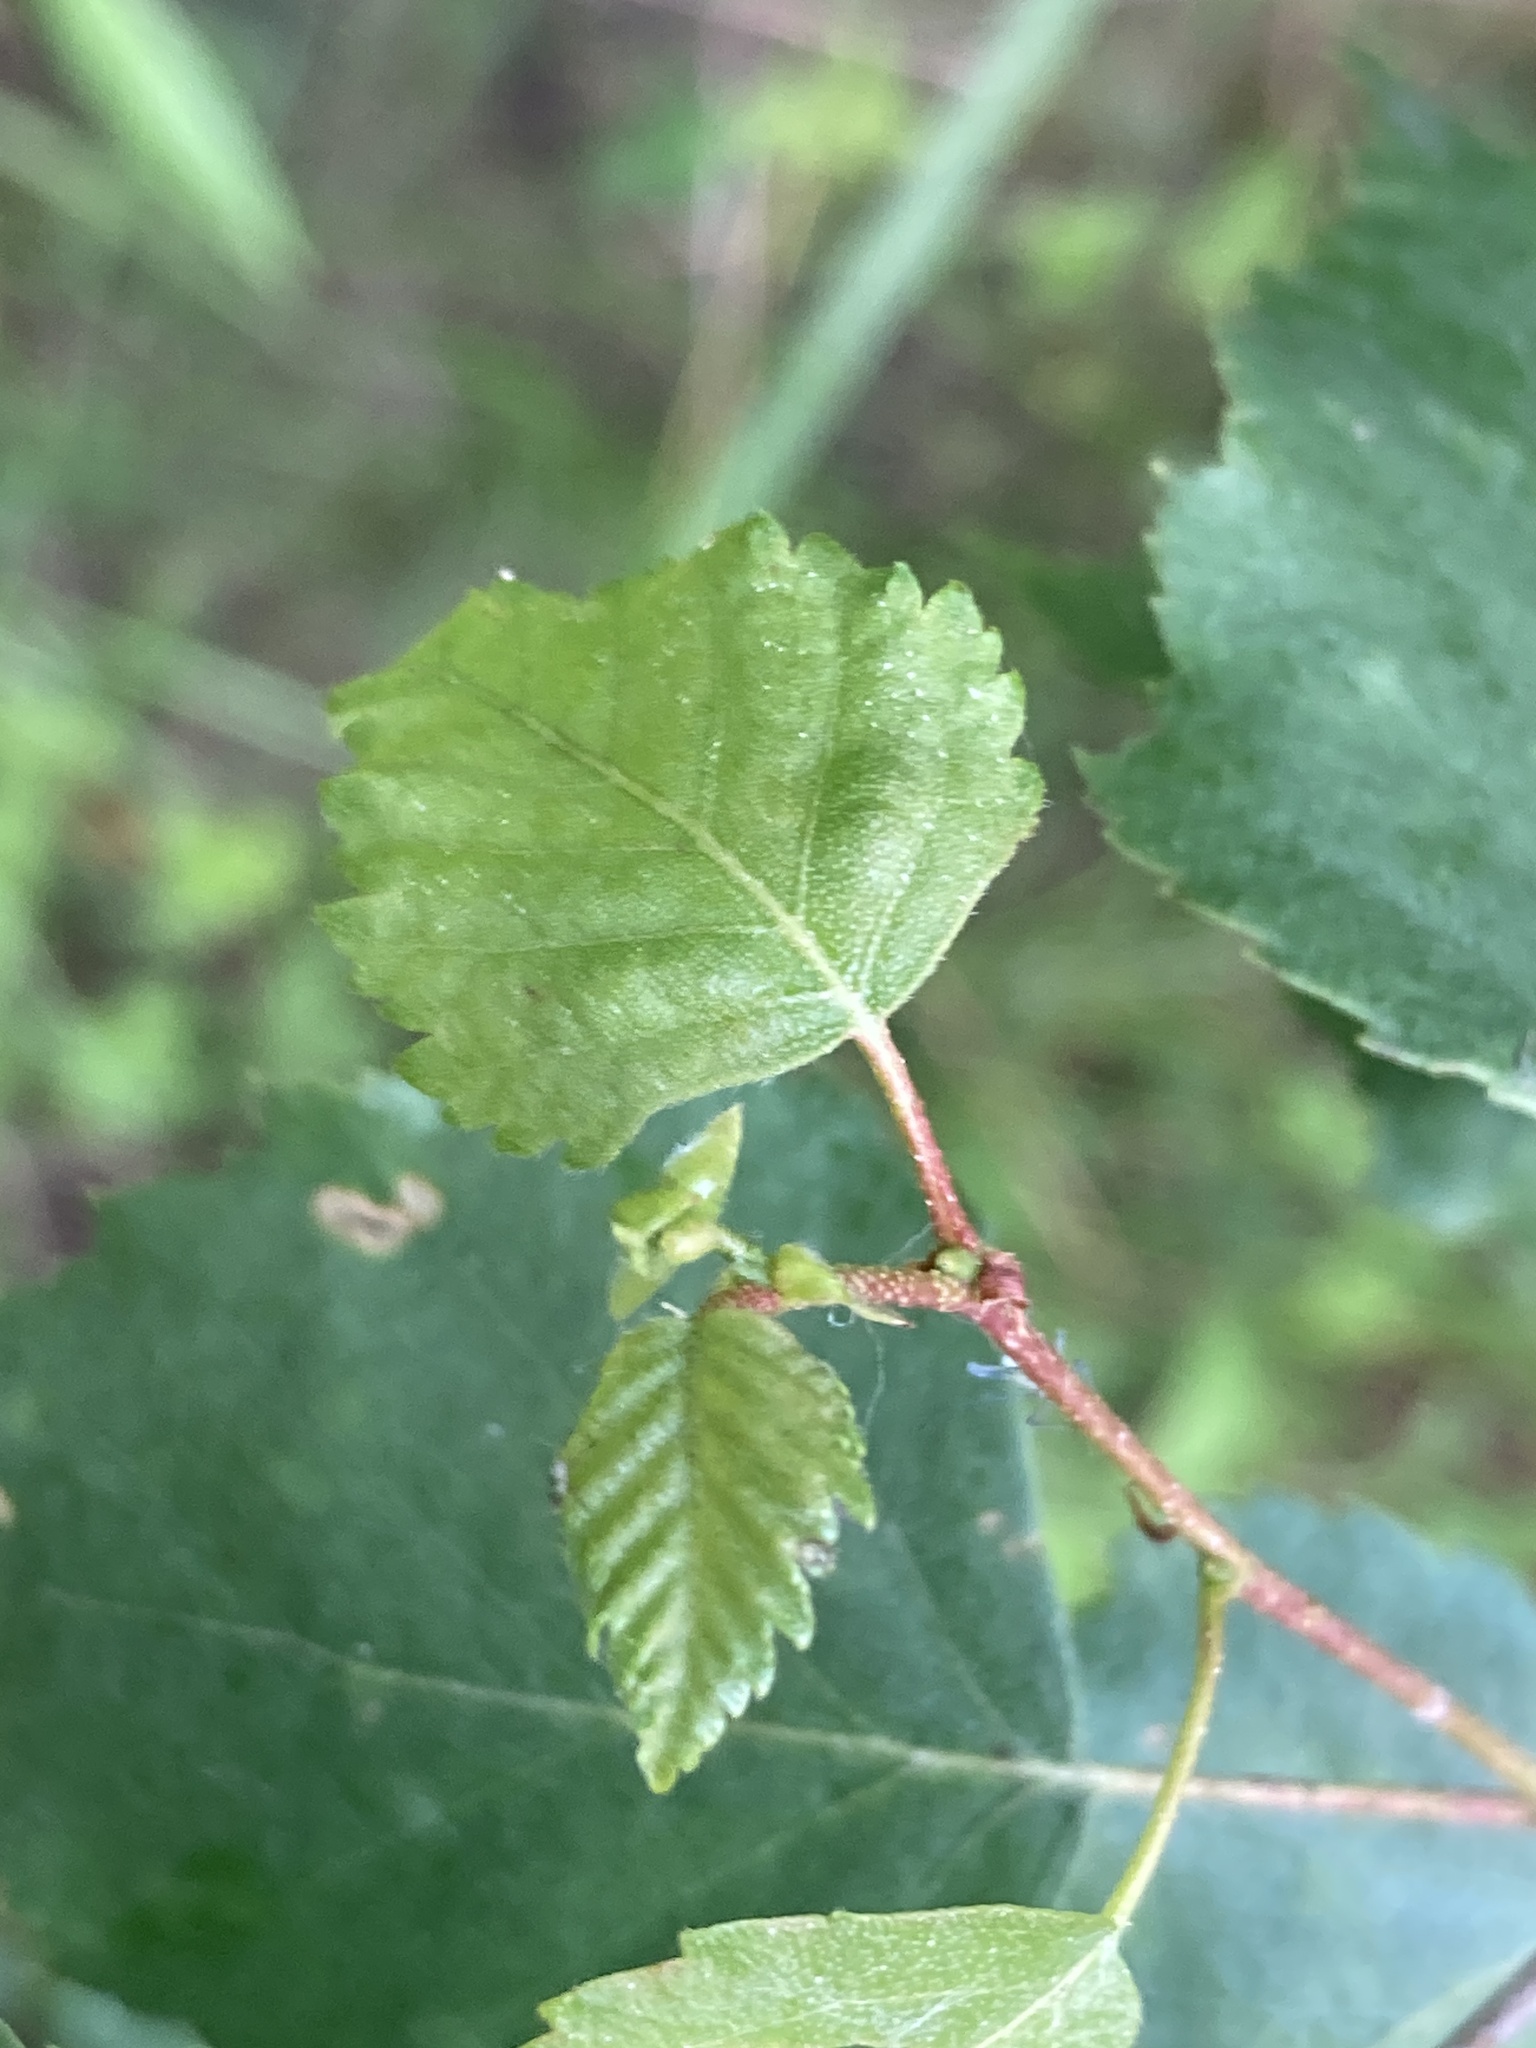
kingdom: Plantae
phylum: Tracheophyta
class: Magnoliopsida
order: Fagales
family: Betulaceae
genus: Betula
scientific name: Betula pendula
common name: Silver birch
